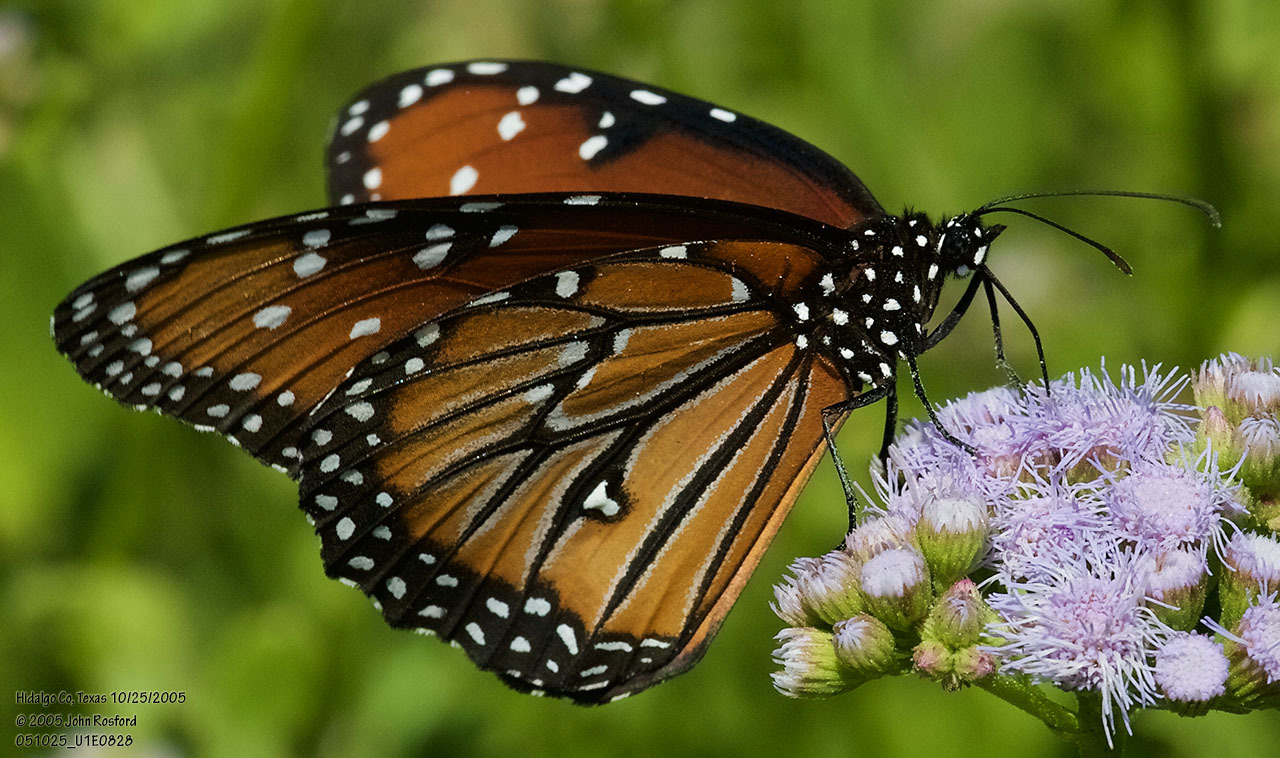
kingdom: Animalia
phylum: Arthropoda
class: Insecta
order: Lepidoptera
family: Nymphalidae
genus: Danaus
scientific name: Danaus gilippus
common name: Queen
